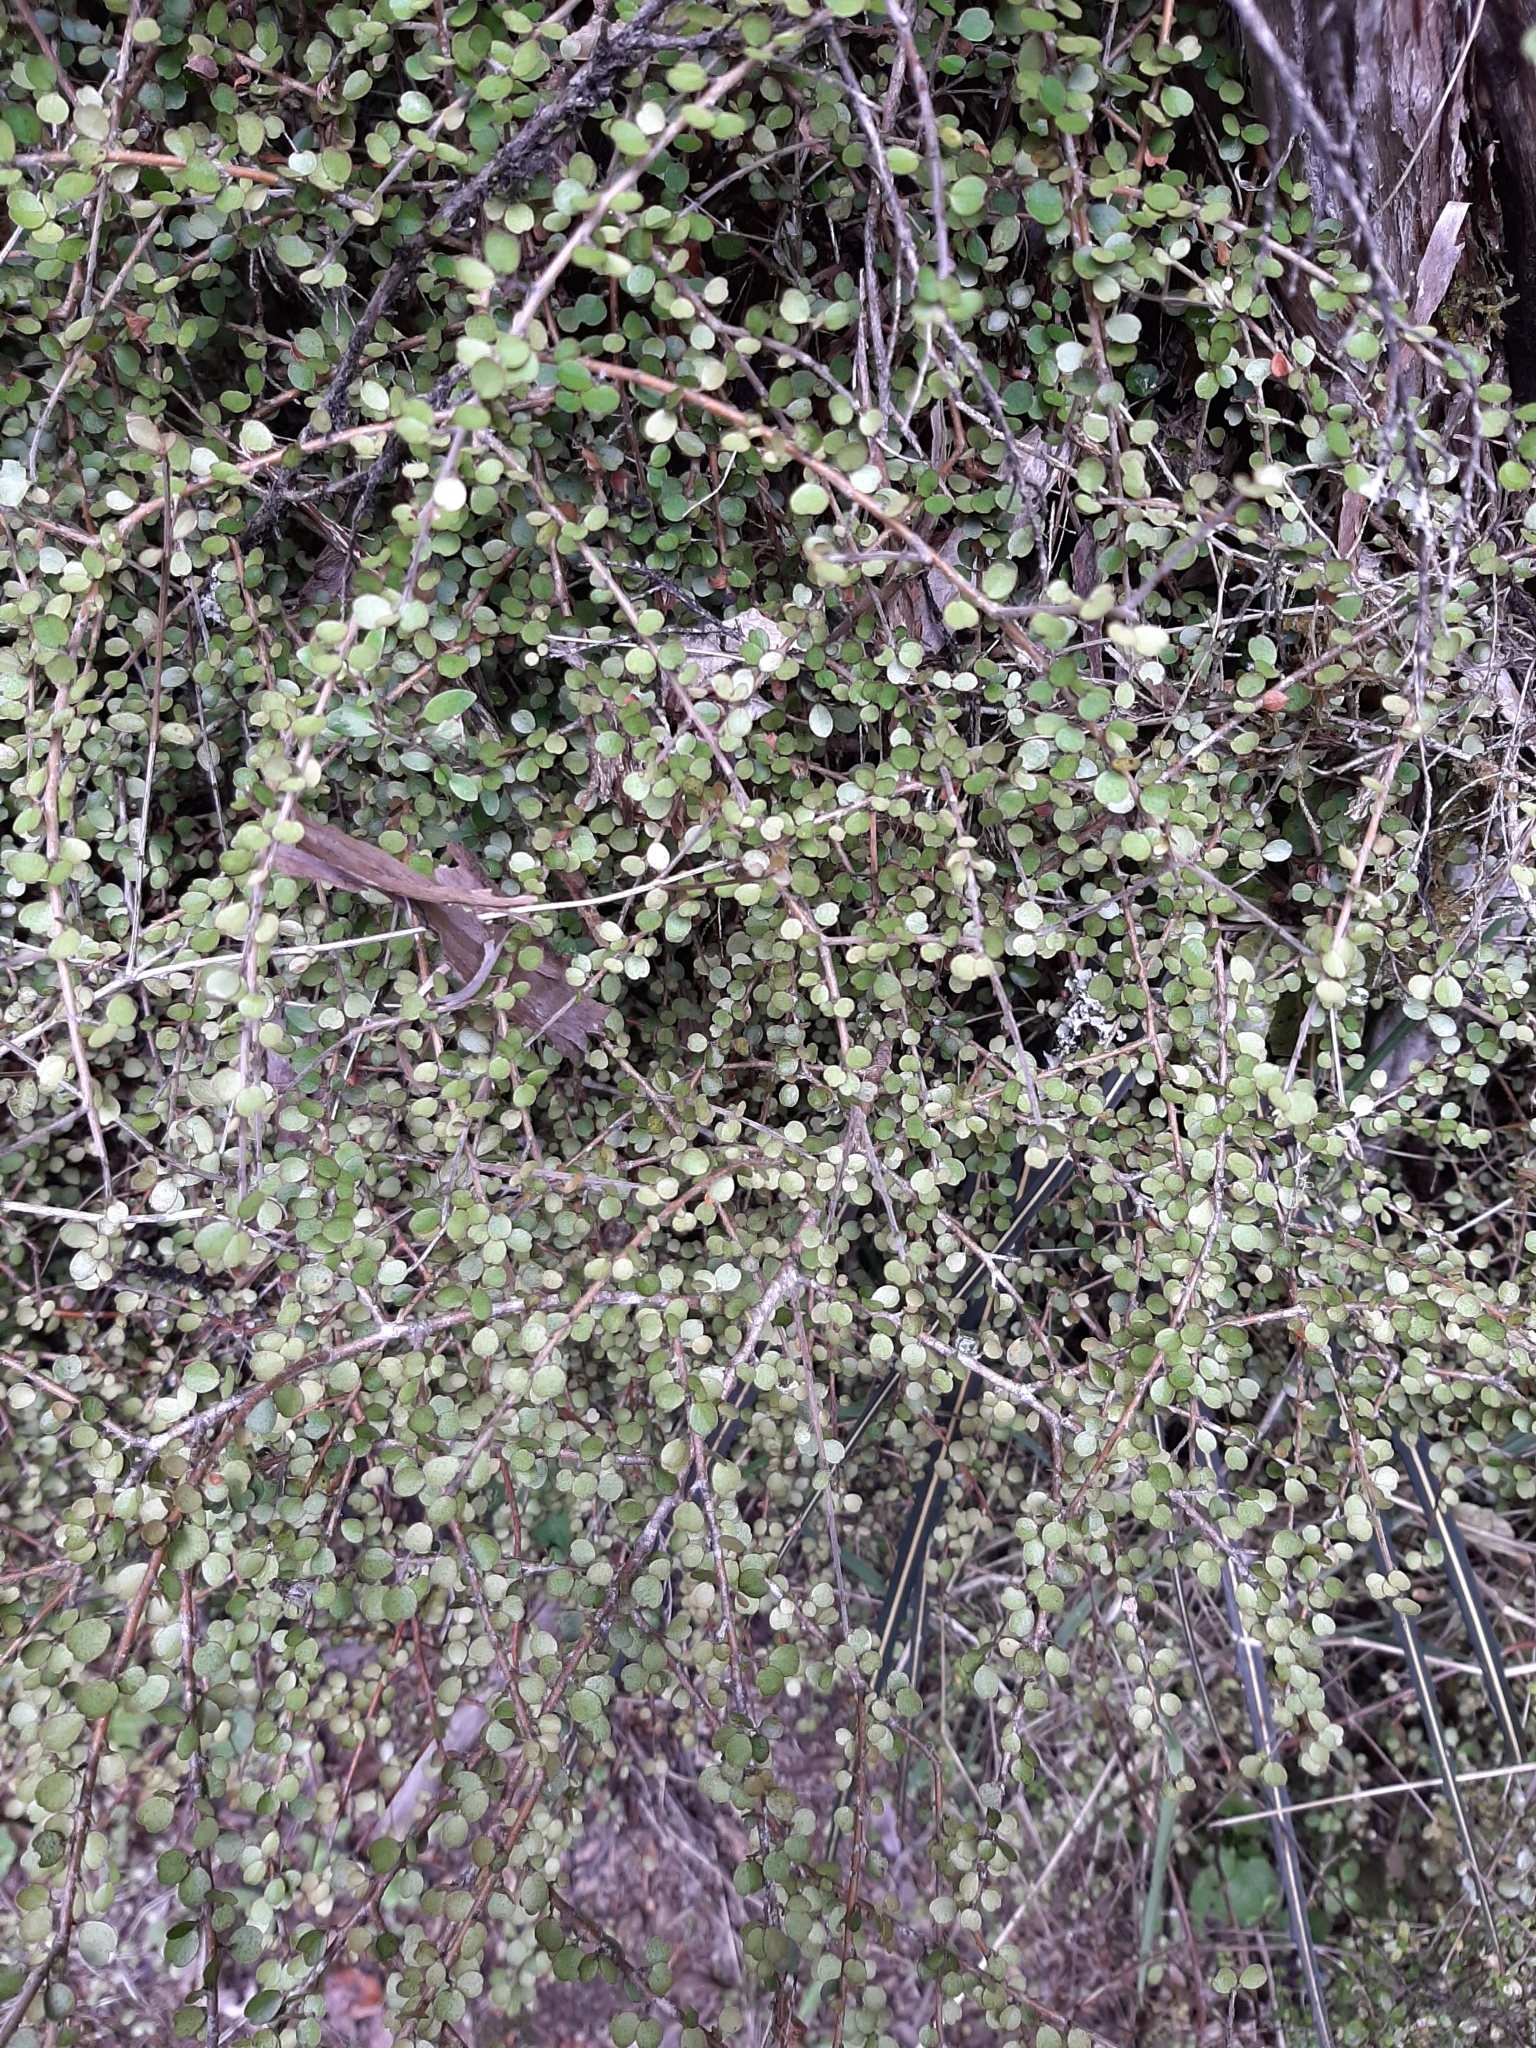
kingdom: Plantae
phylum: Tracheophyta
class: Magnoliopsida
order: Ericales
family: Primulaceae
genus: Myrsine
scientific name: Myrsine divaricata
